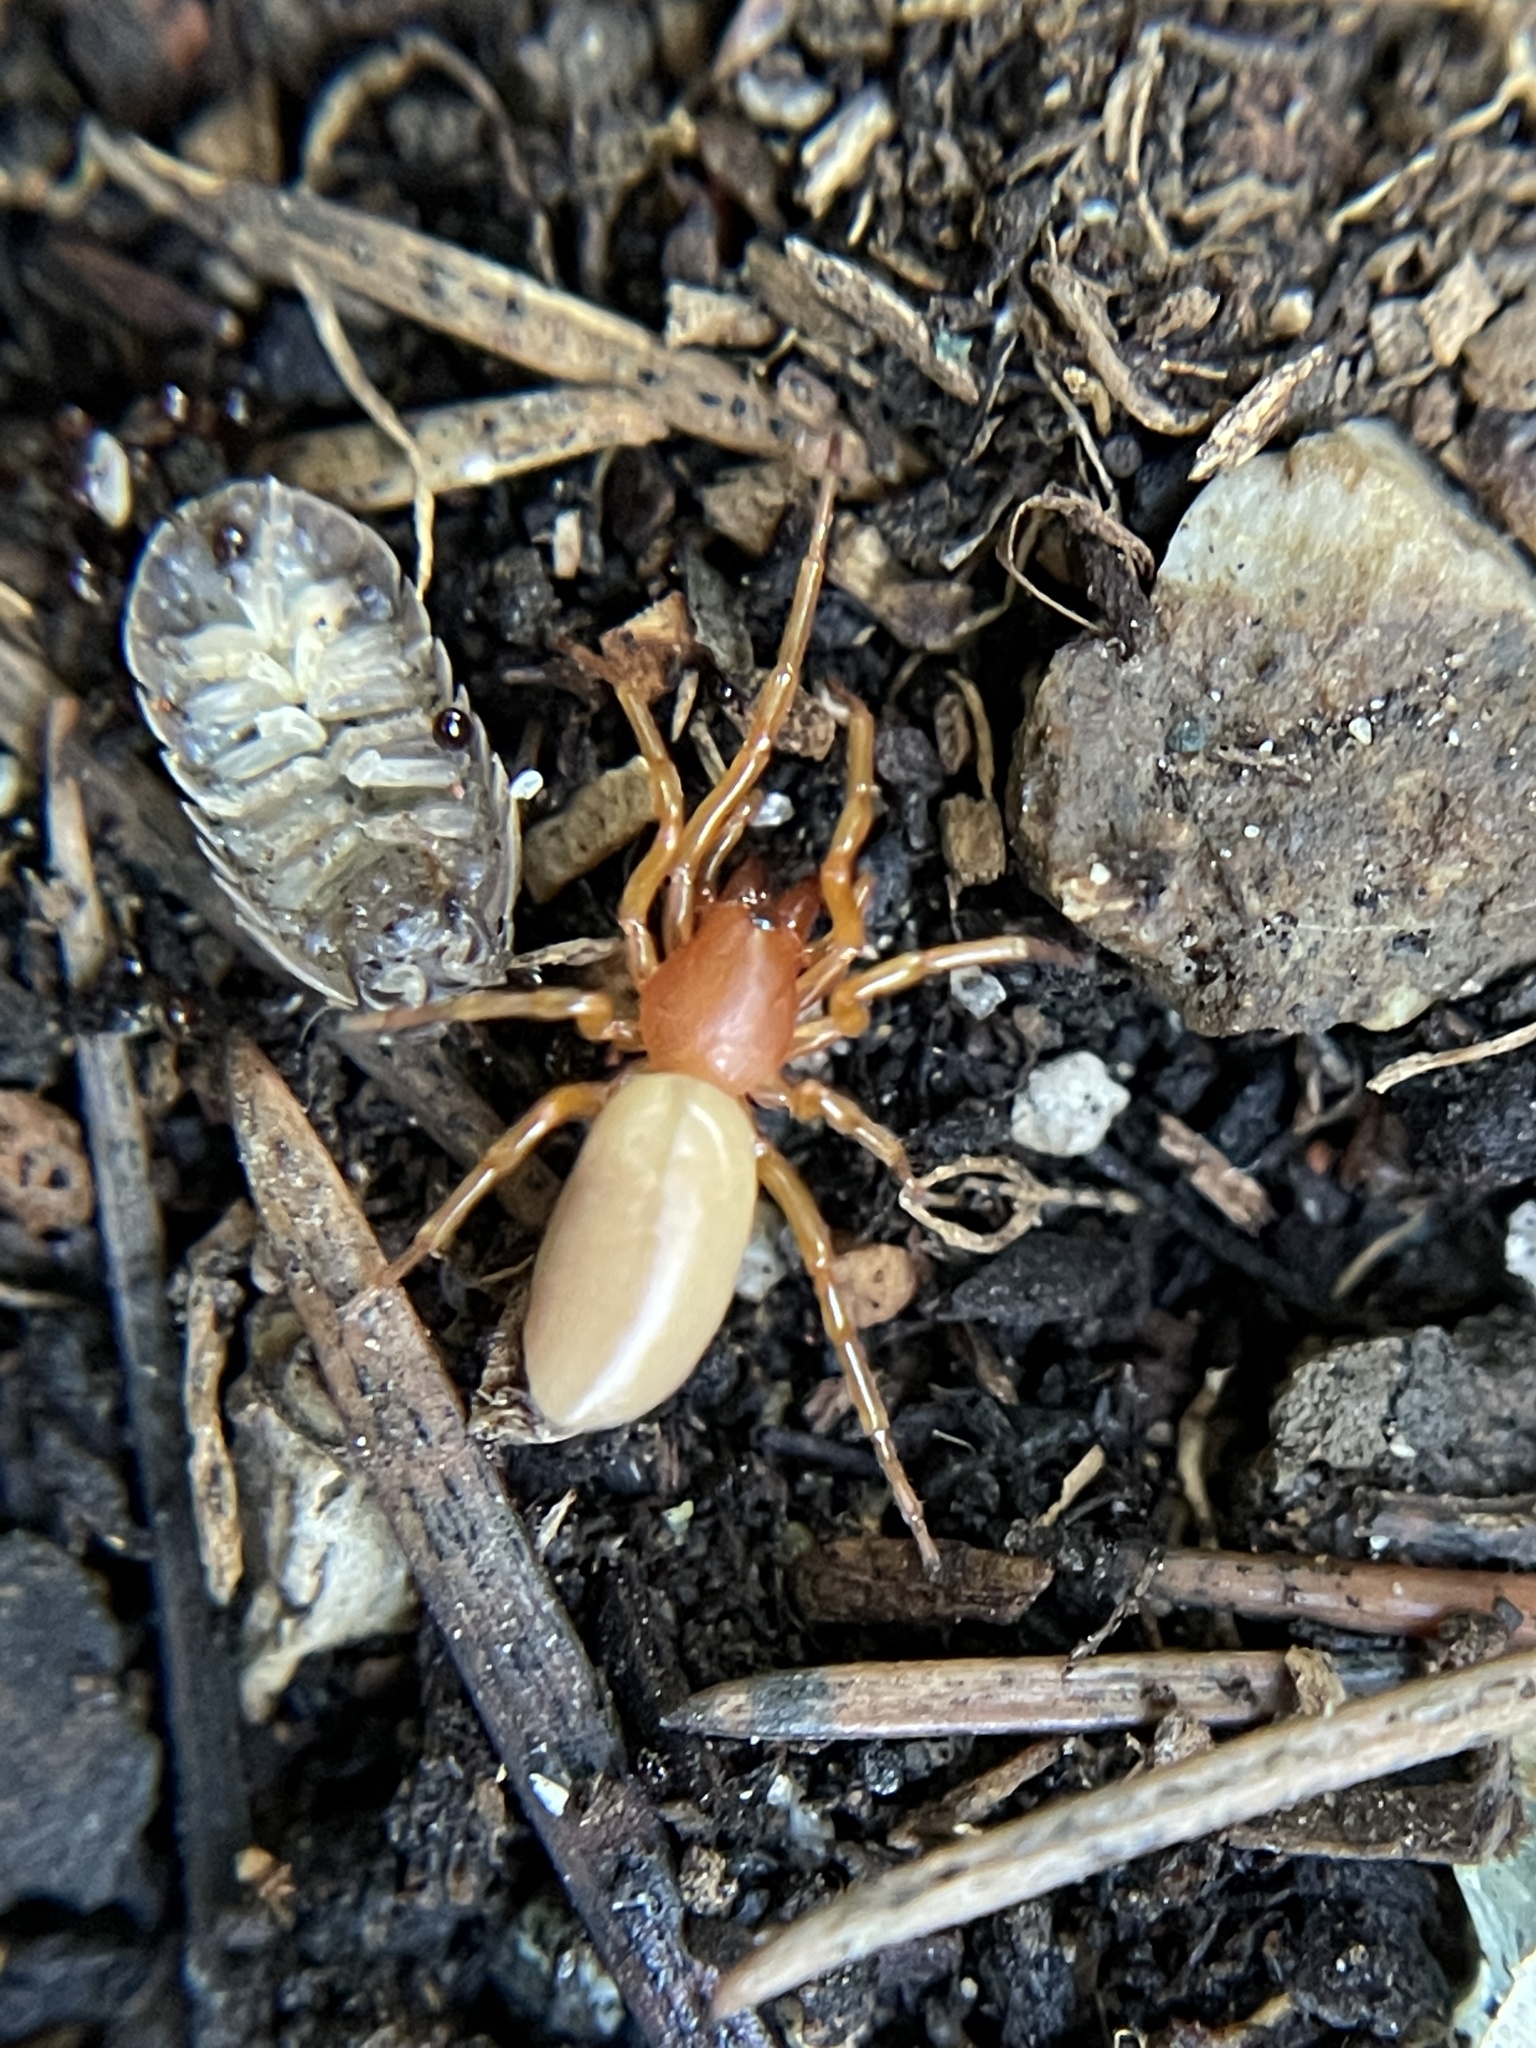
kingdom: Animalia
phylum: Arthropoda
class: Arachnida
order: Araneae
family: Dysderidae
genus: Dysdera
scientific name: Dysdera crocata
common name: Woodlouse spider
